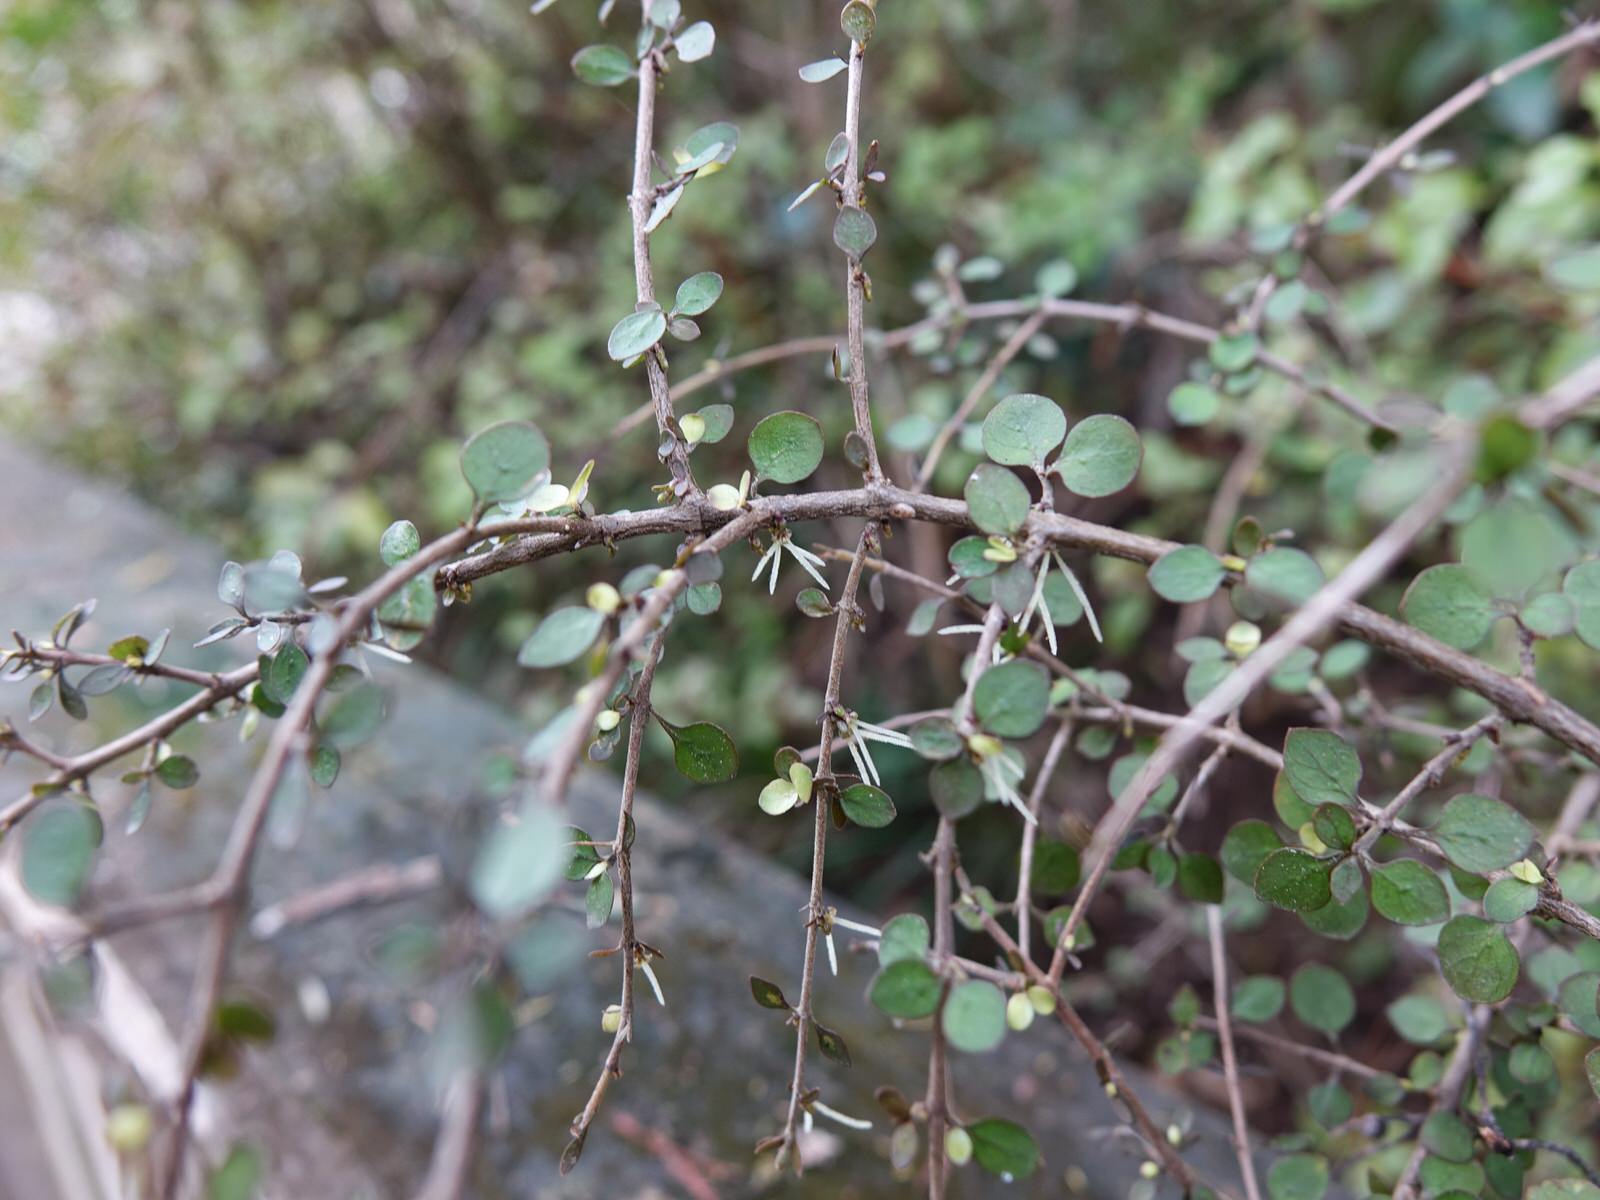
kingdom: Plantae
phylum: Tracheophyta
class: Magnoliopsida
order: Gentianales
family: Rubiaceae
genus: Coprosma
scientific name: Coprosma rhamnoides
